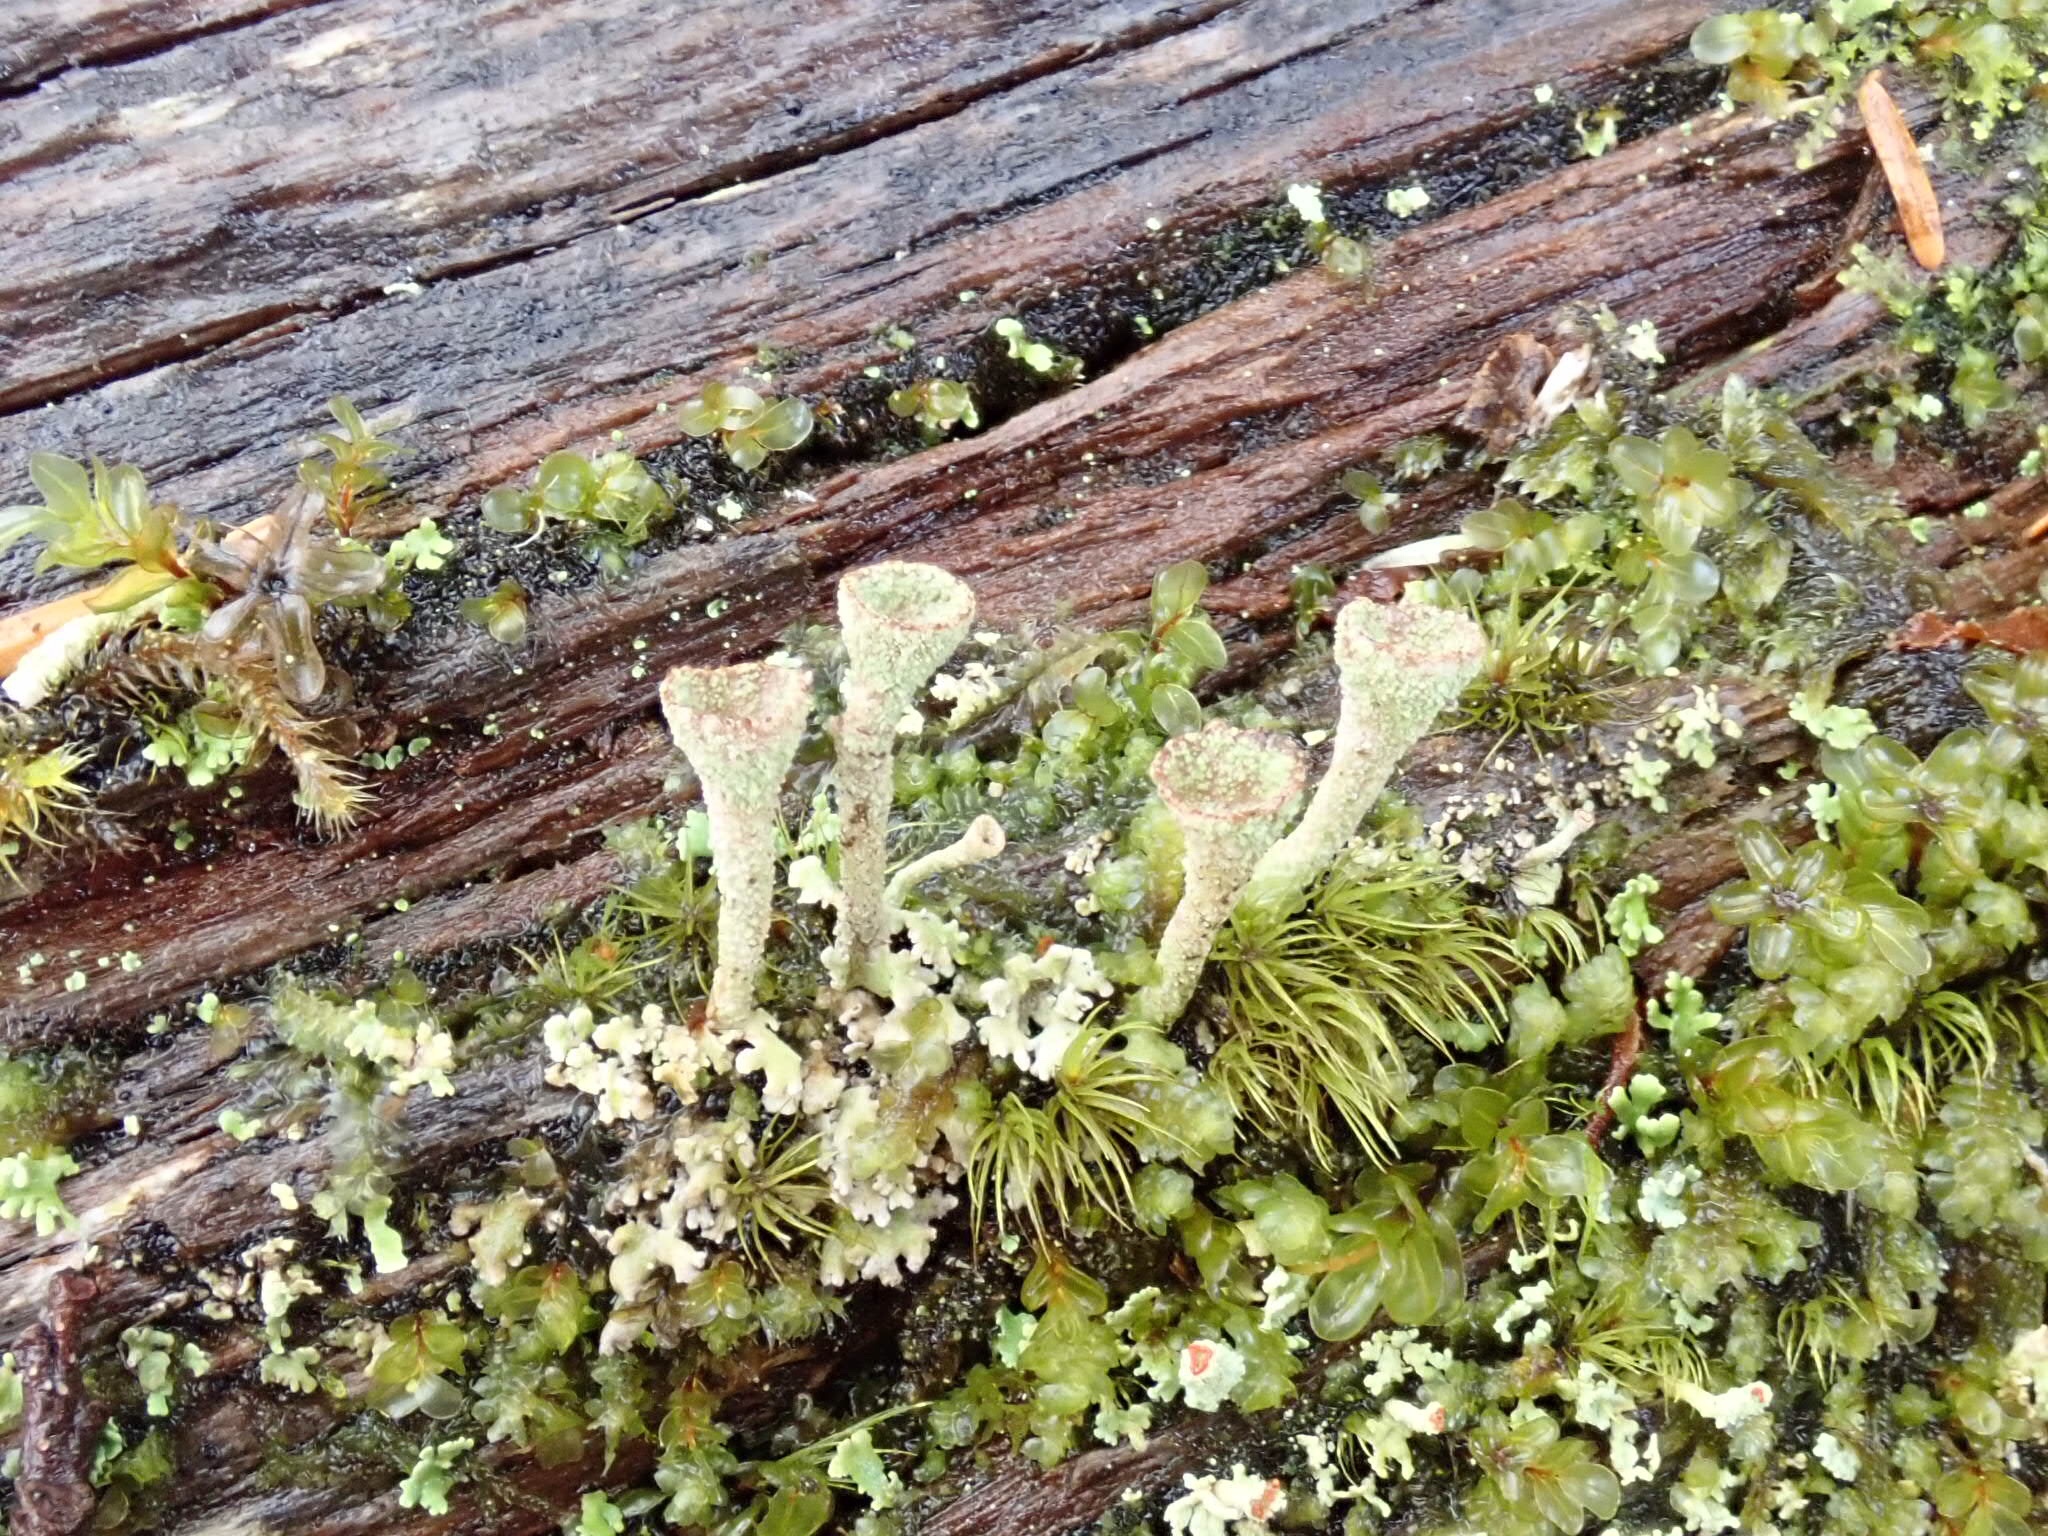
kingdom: Fungi
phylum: Ascomycota
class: Lecanoromycetes
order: Lecanorales
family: Cladoniaceae
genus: Cladonia
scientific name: Cladonia pyxidata
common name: Pebbled pixie cup
